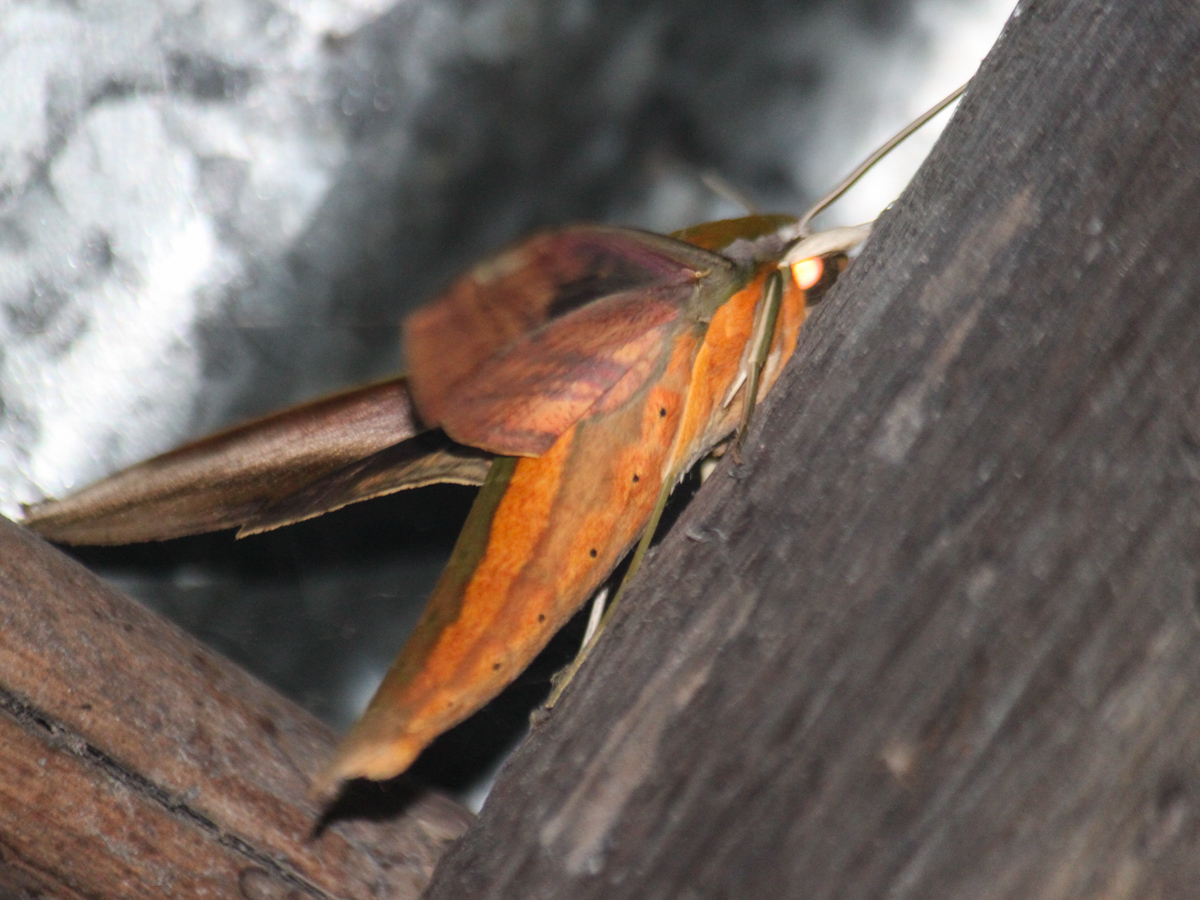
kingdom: Animalia
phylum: Arthropoda
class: Insecta
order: Lepidoptera
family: Sphingidae
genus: Theretra
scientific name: Theretra nessus
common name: Yam hawk moth
